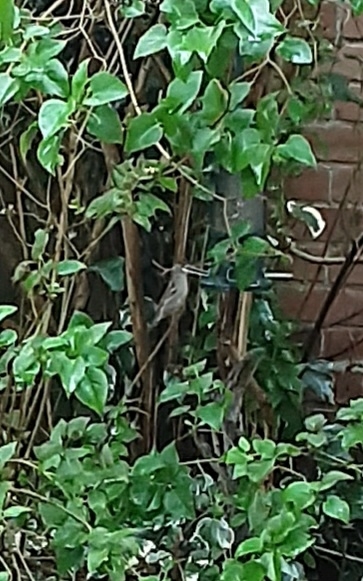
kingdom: Animalia
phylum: Chordata
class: Aves
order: Passeriformes
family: Passeridae
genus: Passer
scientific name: Passer domesticus
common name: House sparrow
